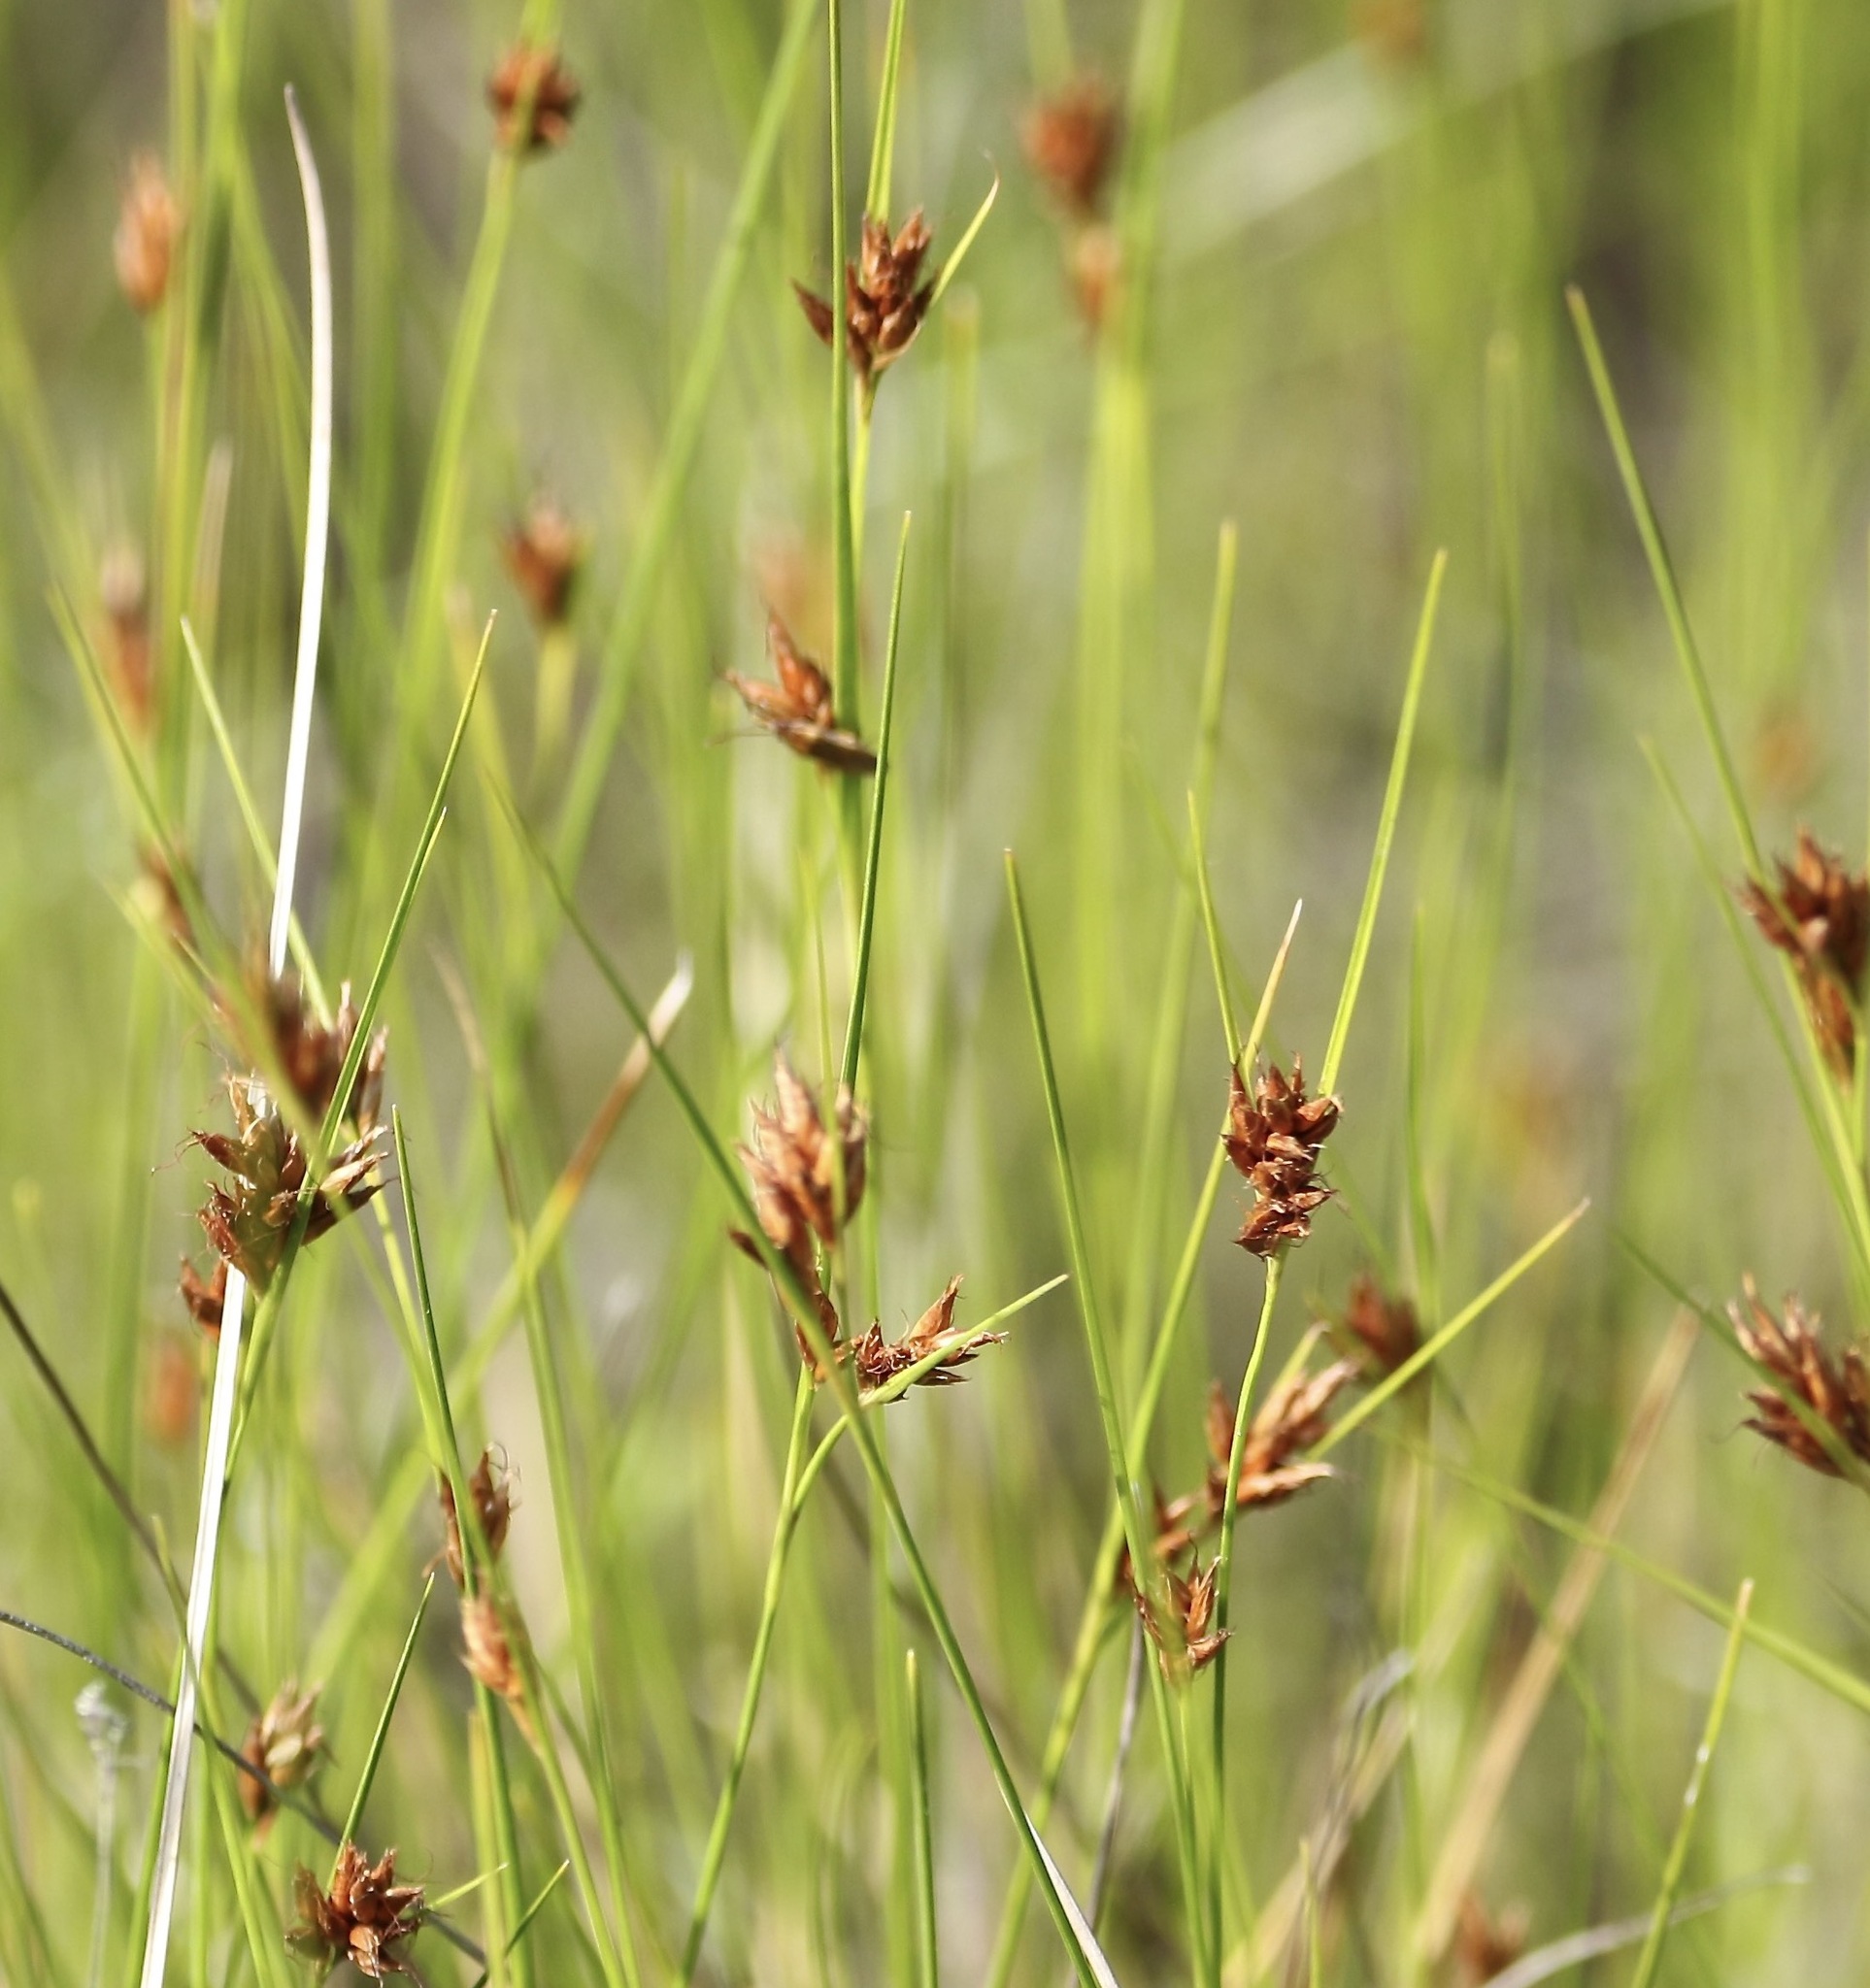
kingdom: Plantae
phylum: Tracheophyta
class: Liliopsida
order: Poales
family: Cyperaceae
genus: Rhynchospora
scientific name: Rhynchospora capitellata
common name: Brownish beaksedge
